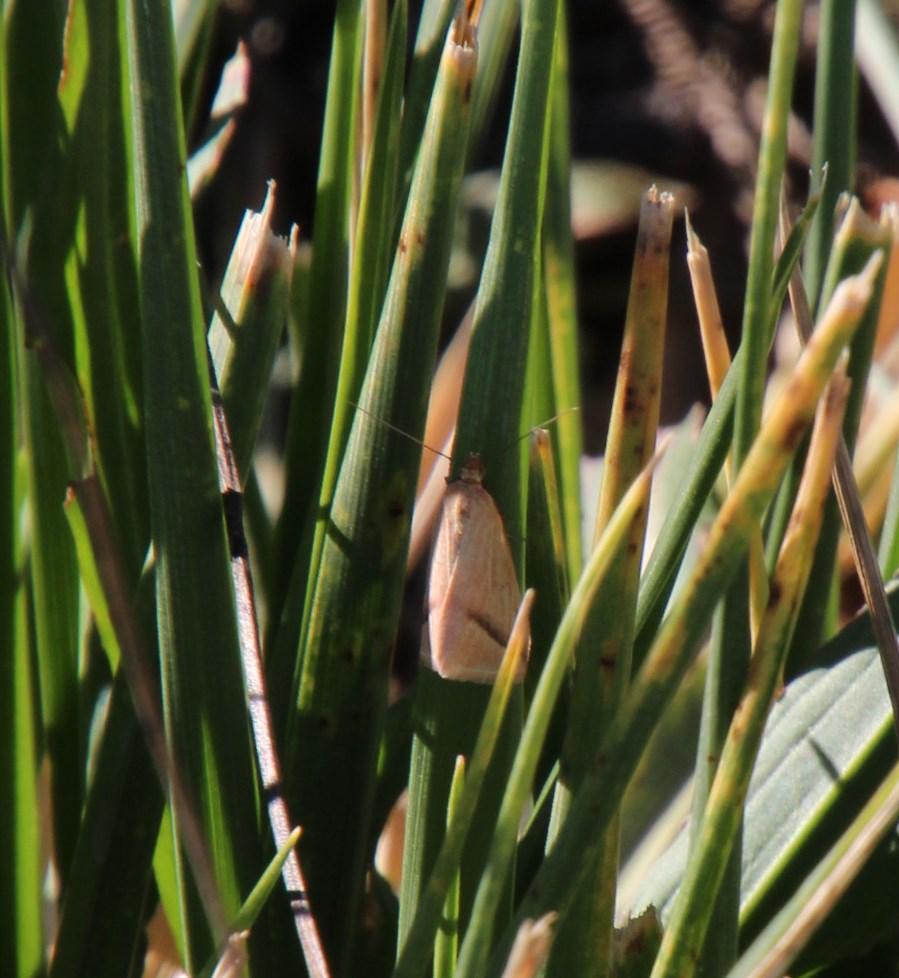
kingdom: Animalia
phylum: Arthropoda
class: Insecta
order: Lepidoptera
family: Geometridae
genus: Rhodometra
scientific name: Rhodometra sacraria
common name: Vestal
